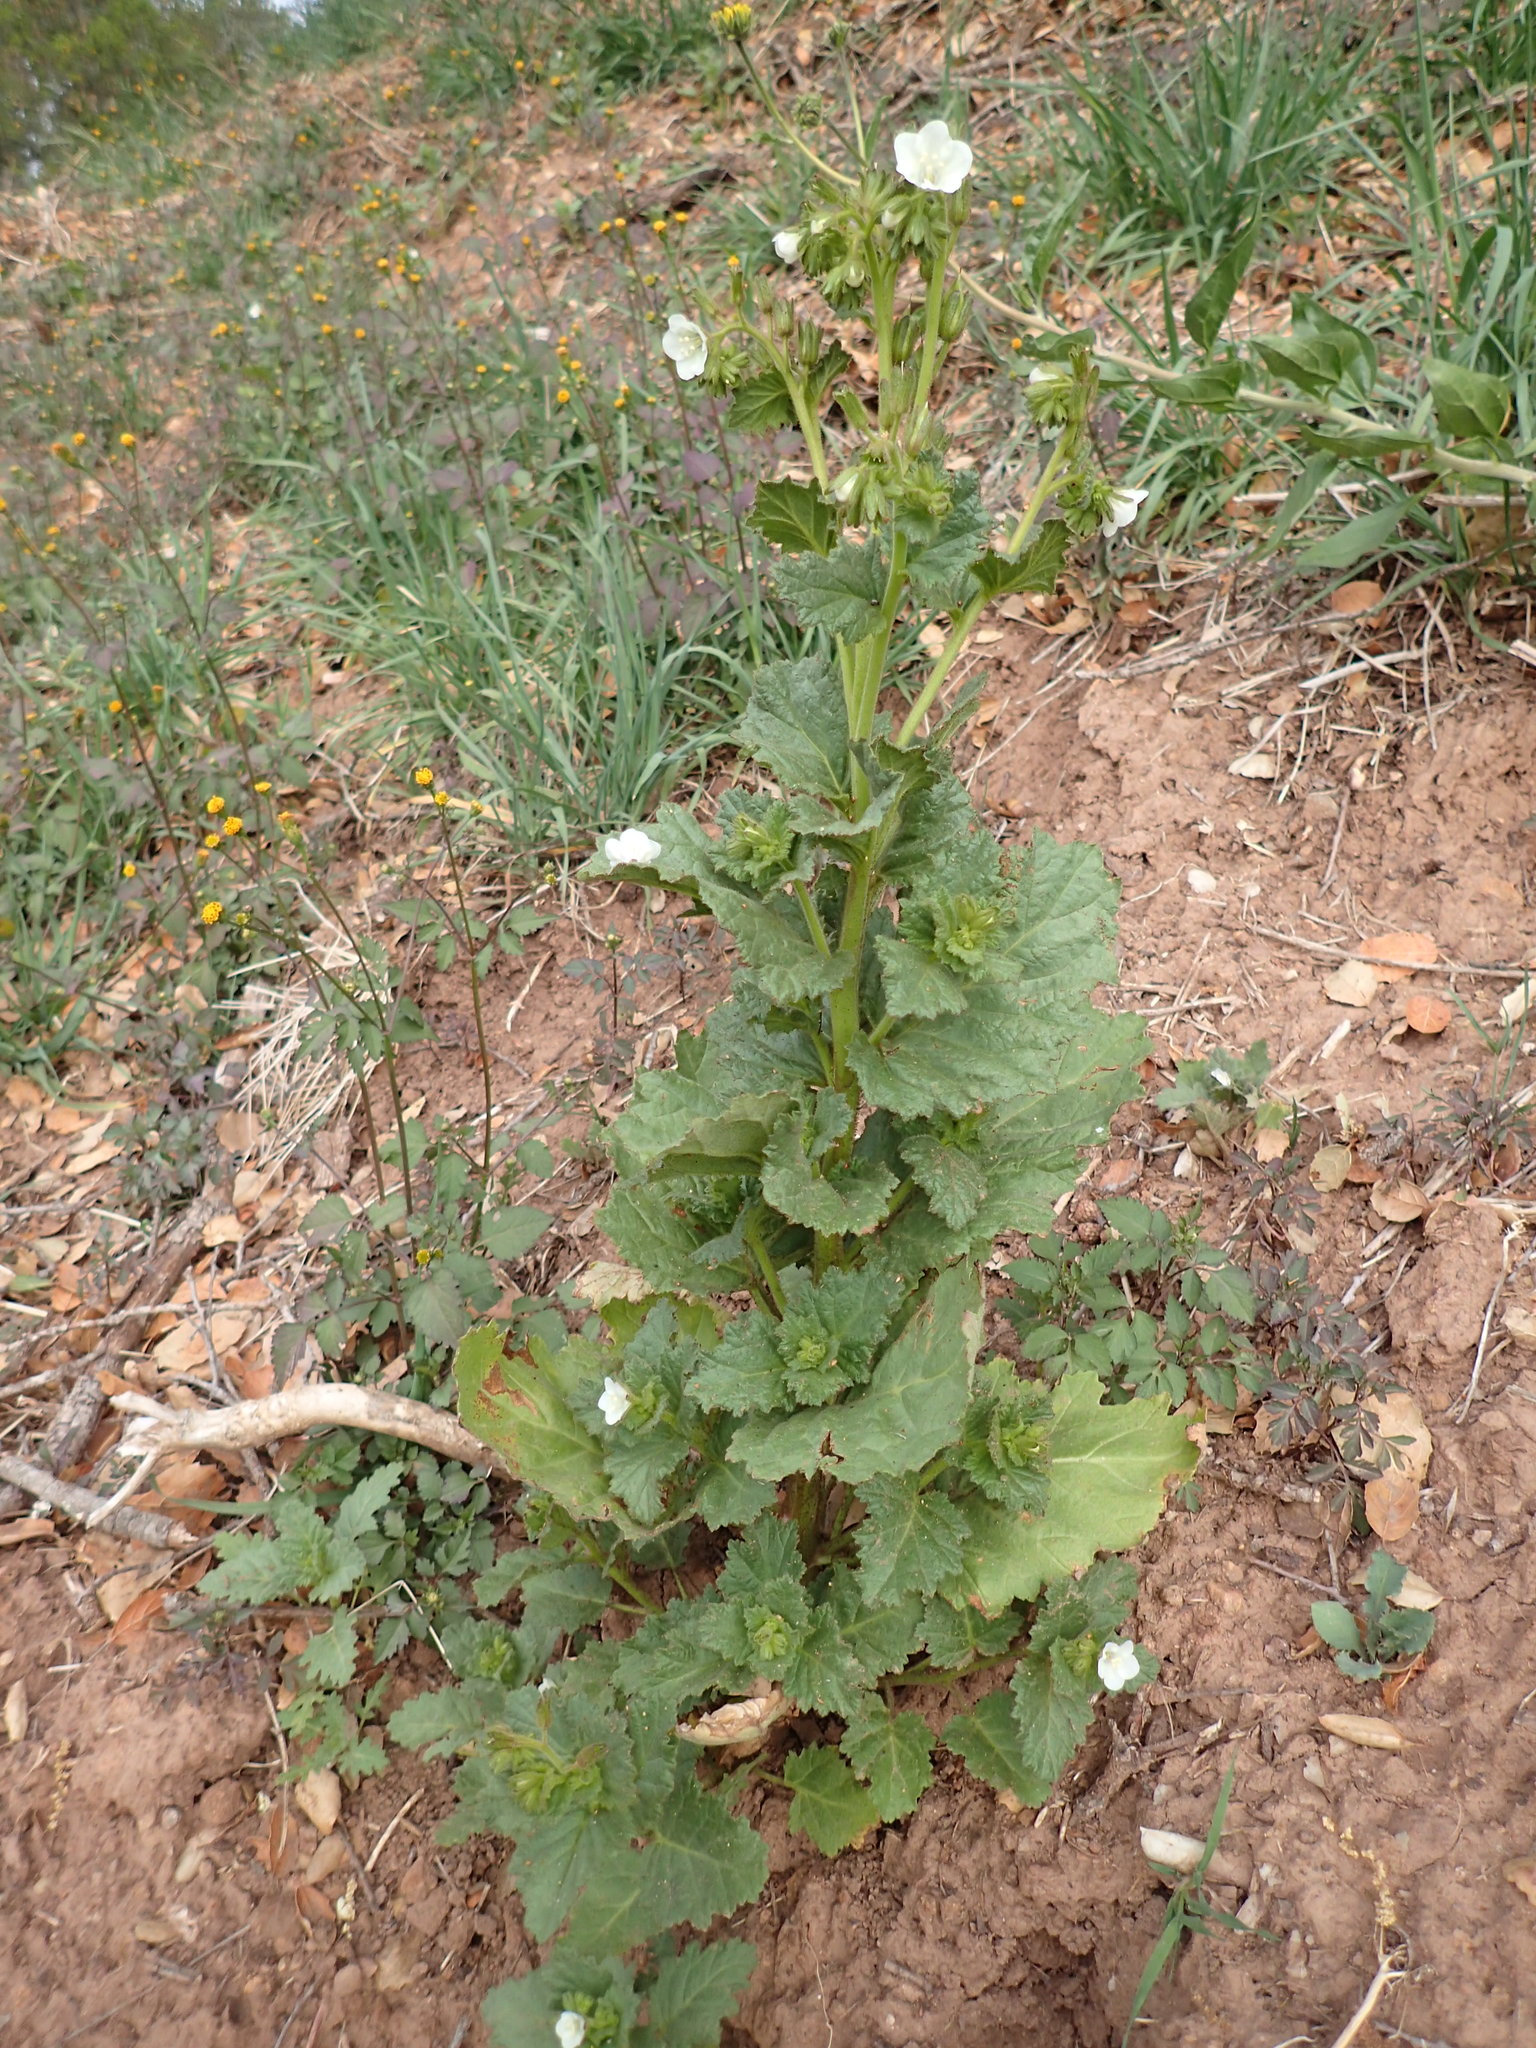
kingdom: Plantae
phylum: Tracheophyta
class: Magnoliopsida
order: Boraginales
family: Hydrophyllaceae
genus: Phacelia
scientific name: Phacelia viscida
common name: Sticky phacelia
